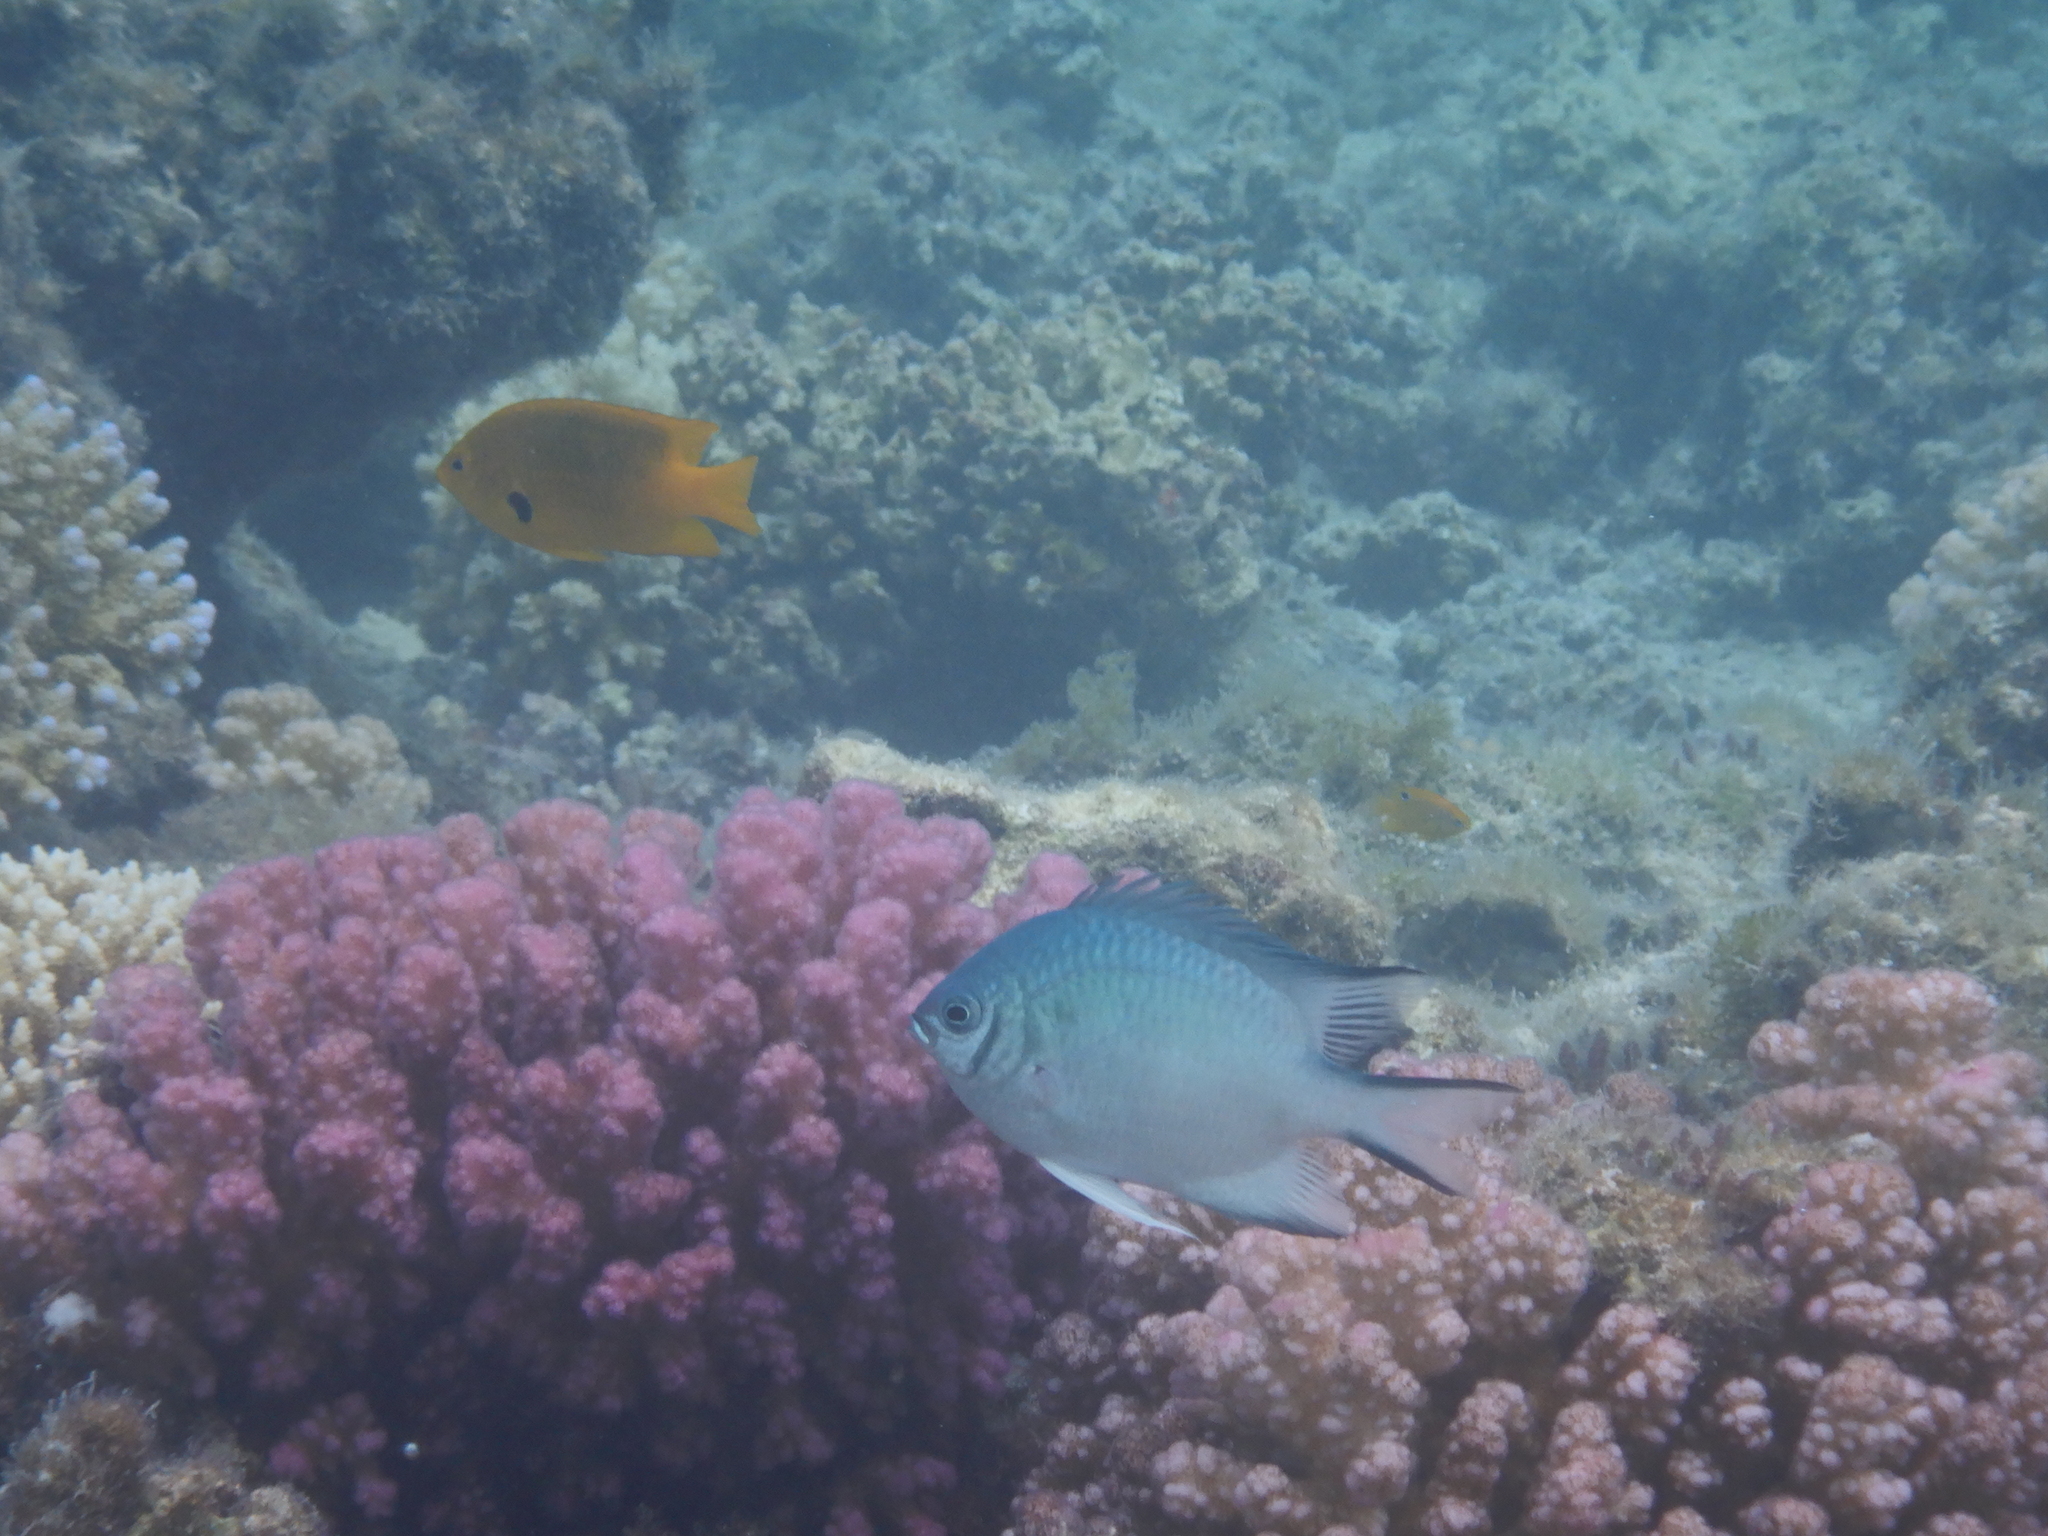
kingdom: Animalia
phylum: Chordata
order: Perciformes
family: Pomacentridae
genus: Pomacentrus
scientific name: Pomacentrus sulfureus
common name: Sulfur damsel
